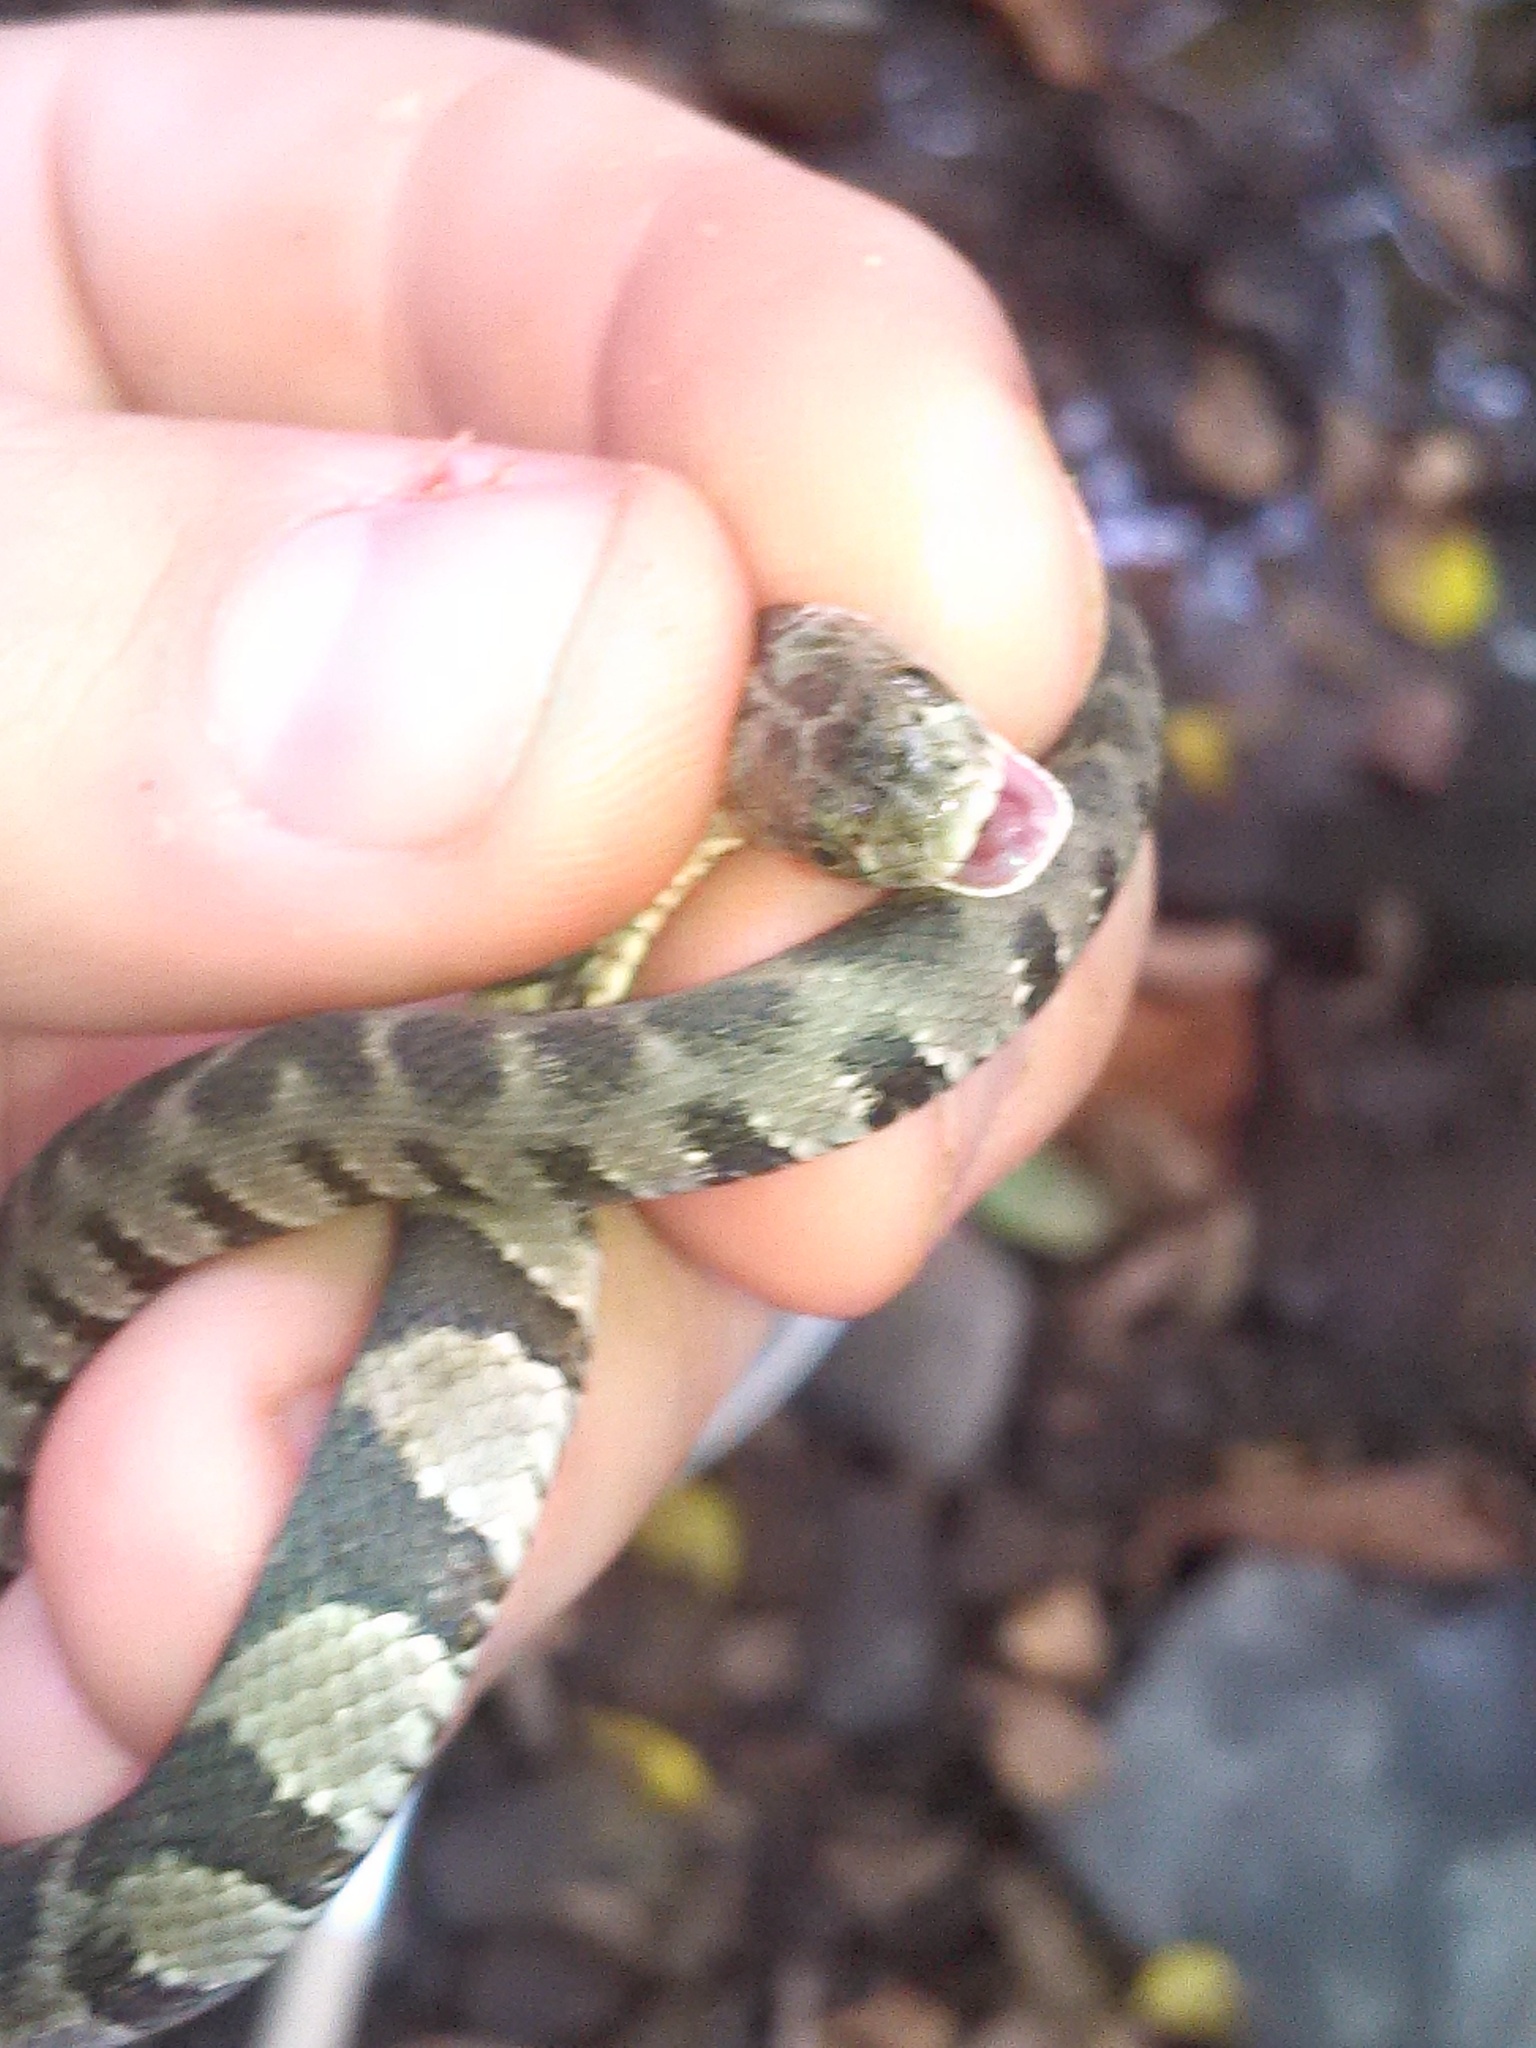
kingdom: Animalia
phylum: Chordata
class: Squamata
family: Colubridae
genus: Nerodia
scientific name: Nerodia sipedon
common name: Northern water snake
